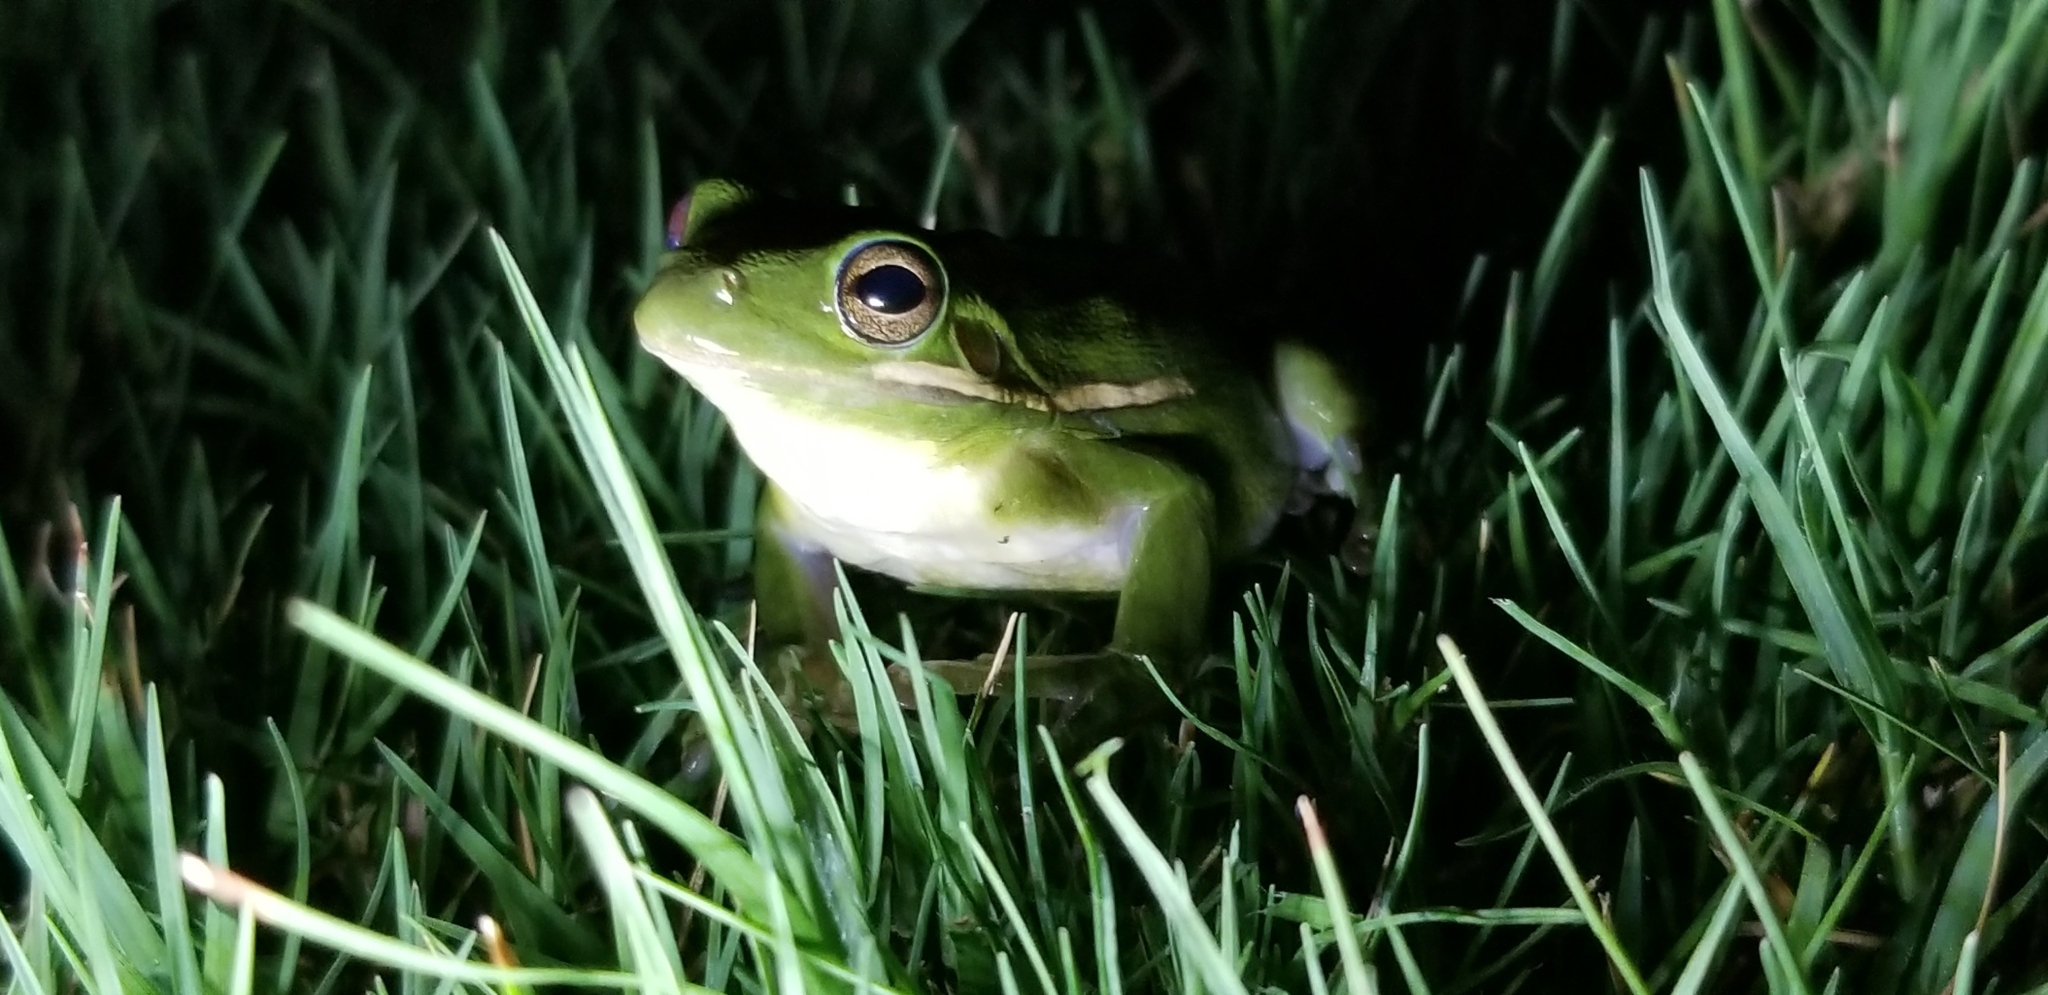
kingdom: Animalia
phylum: Chordata
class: Amphibia
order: Anura
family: Hylidae
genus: Dryophytes
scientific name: Dryophytes cinereus
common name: Green treefrog
